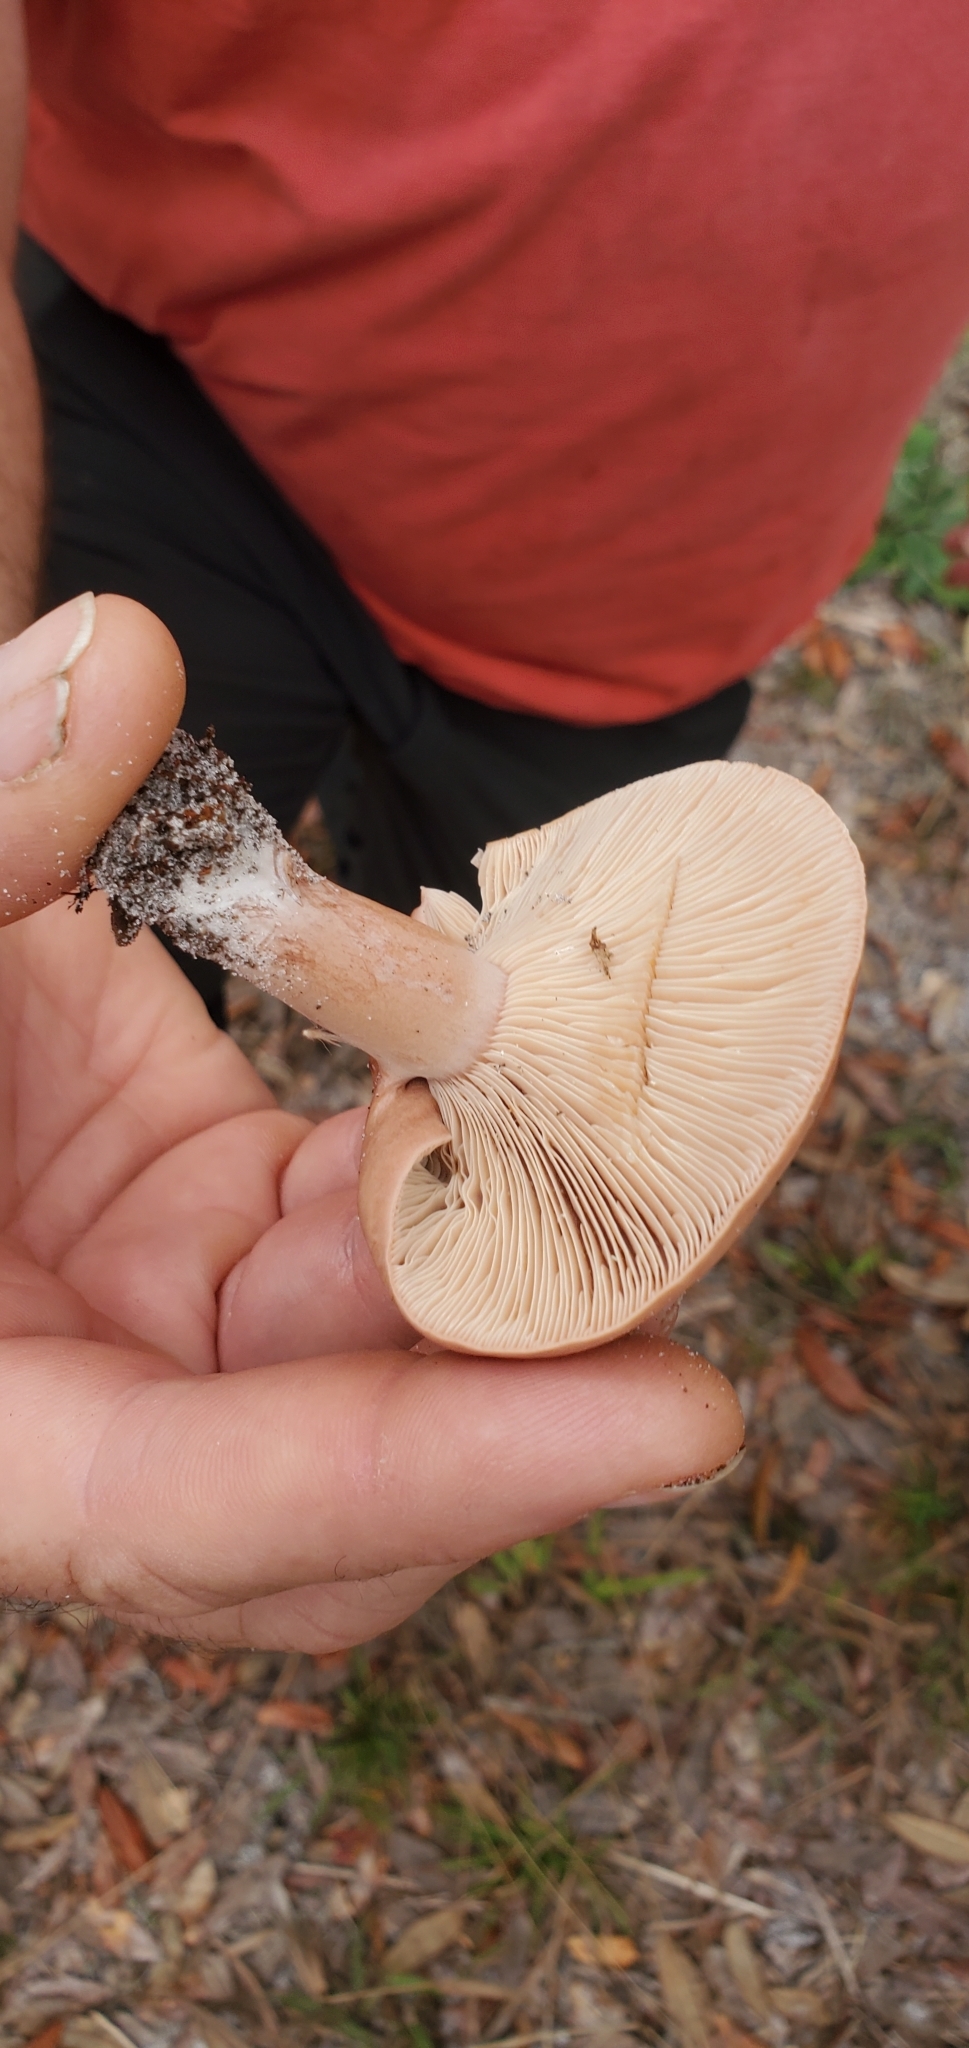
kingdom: Fungi
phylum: Basidiomycota
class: Agaricomycetes
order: Russulales
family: Russulaceae
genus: Lactarius
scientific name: Lactarius quietus
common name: Oak milk-cap
